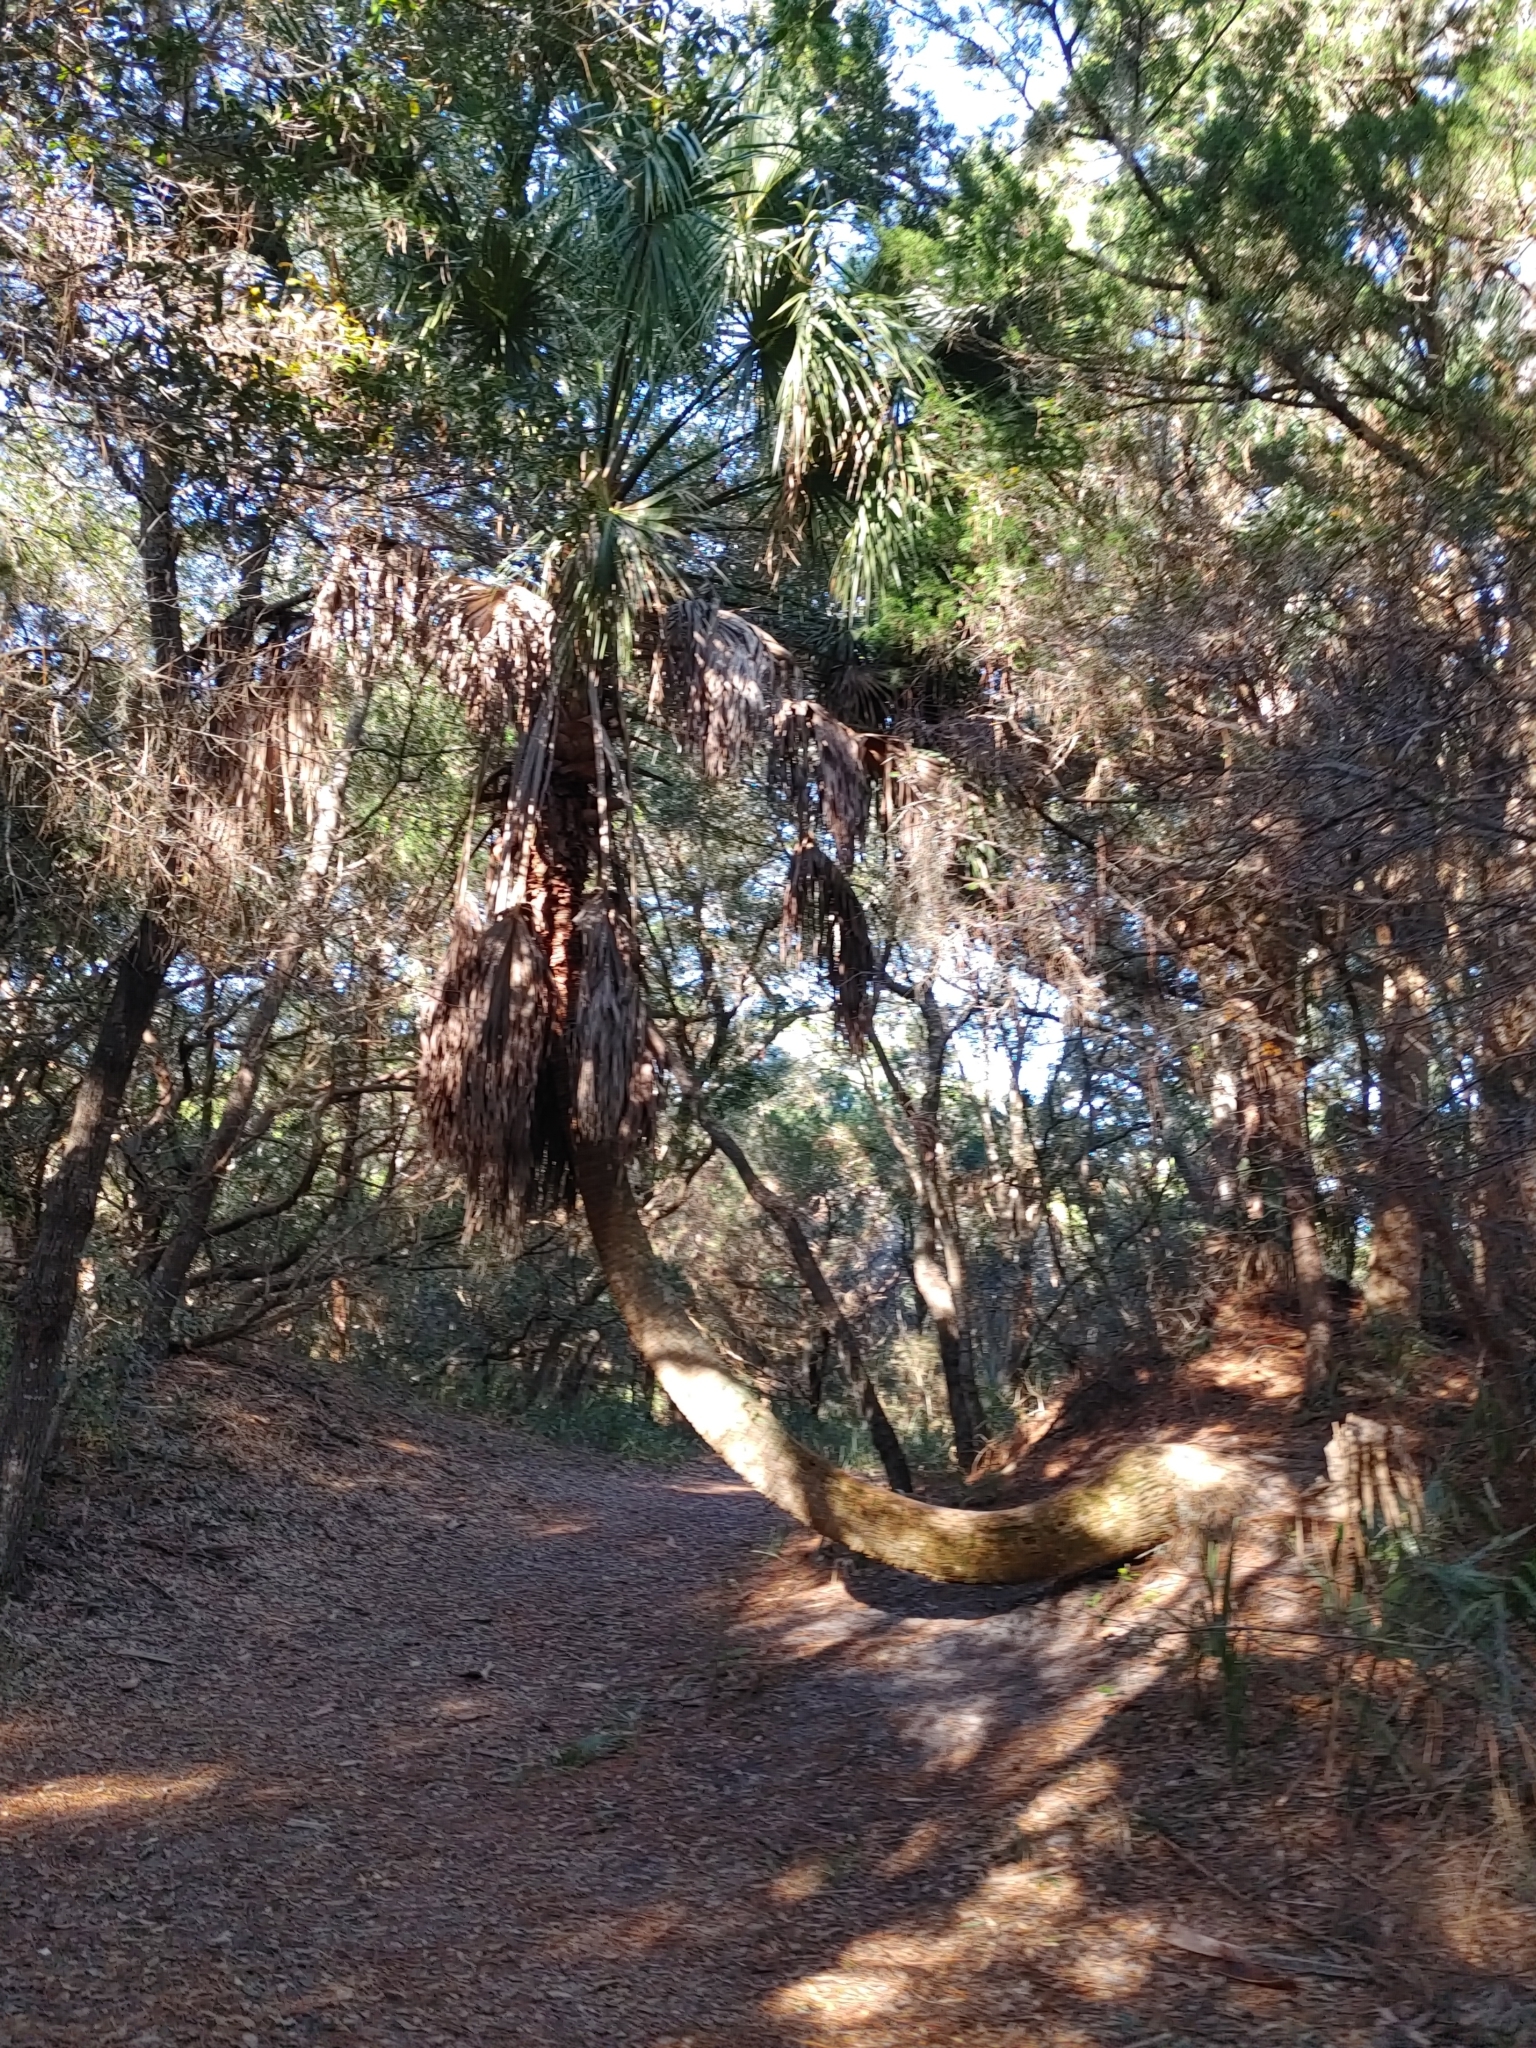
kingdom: Plantae
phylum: Tracheophyta
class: Liliopsida
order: Arecales
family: Arecaceae
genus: Sabal
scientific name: Sabal palmetto
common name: Blue palmetto
